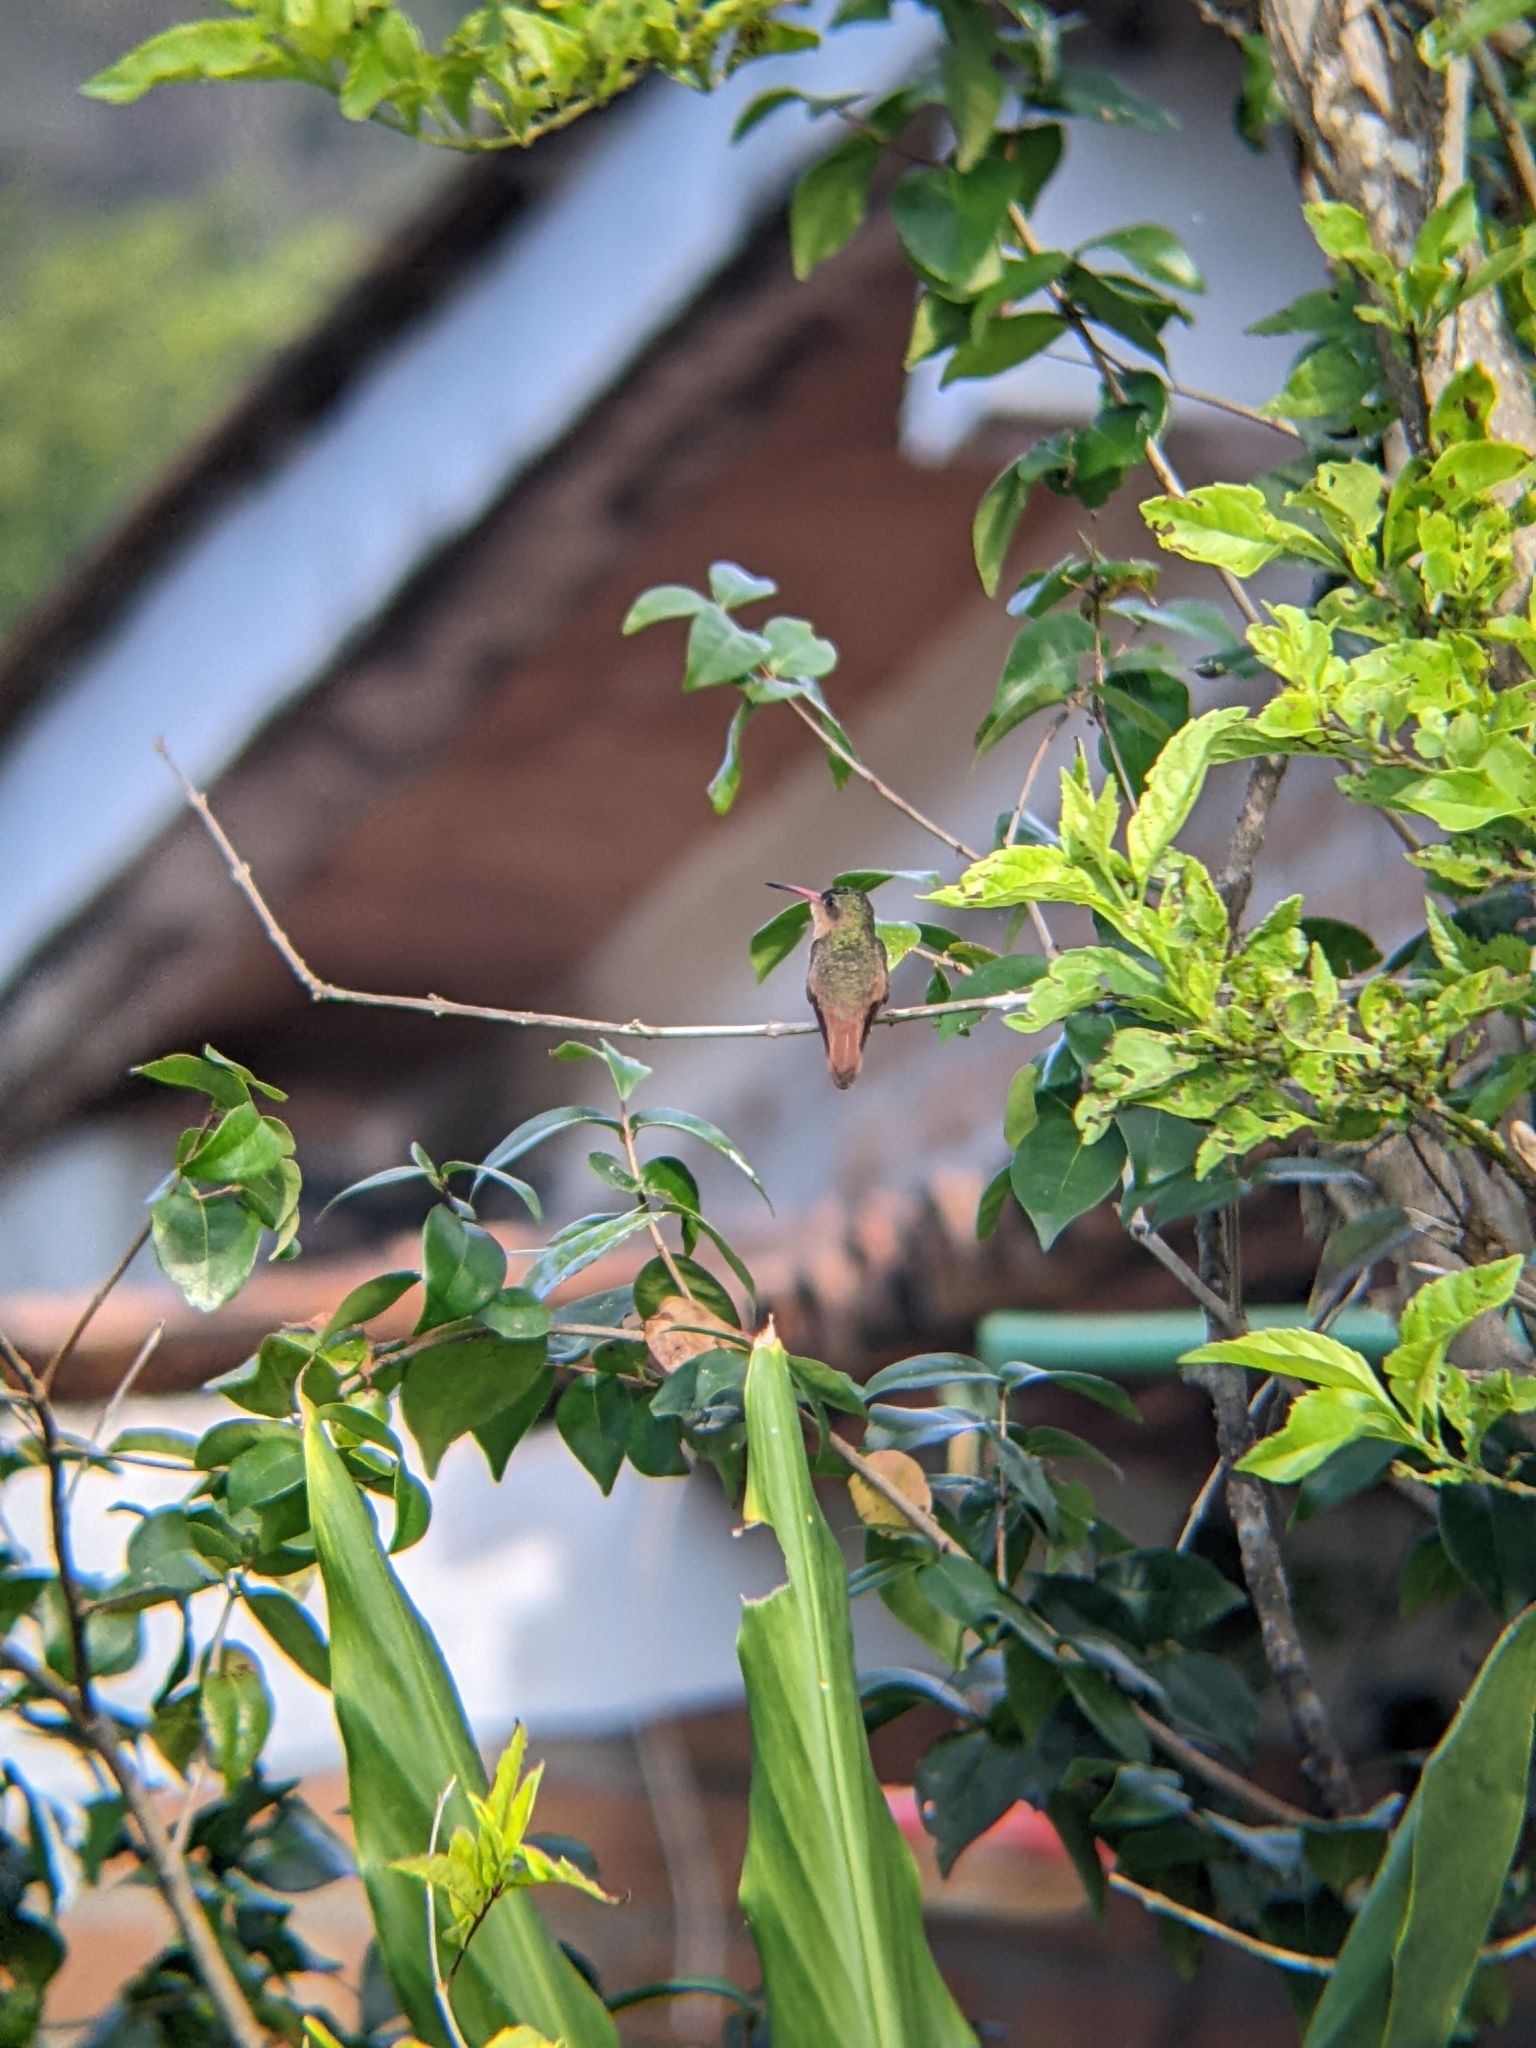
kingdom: Animalia
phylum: Chordata
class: Aves
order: Apodiformes
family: Trochilidae
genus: Amazilia
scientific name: Amazilia rutila
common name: Cinnamon hummingbird
